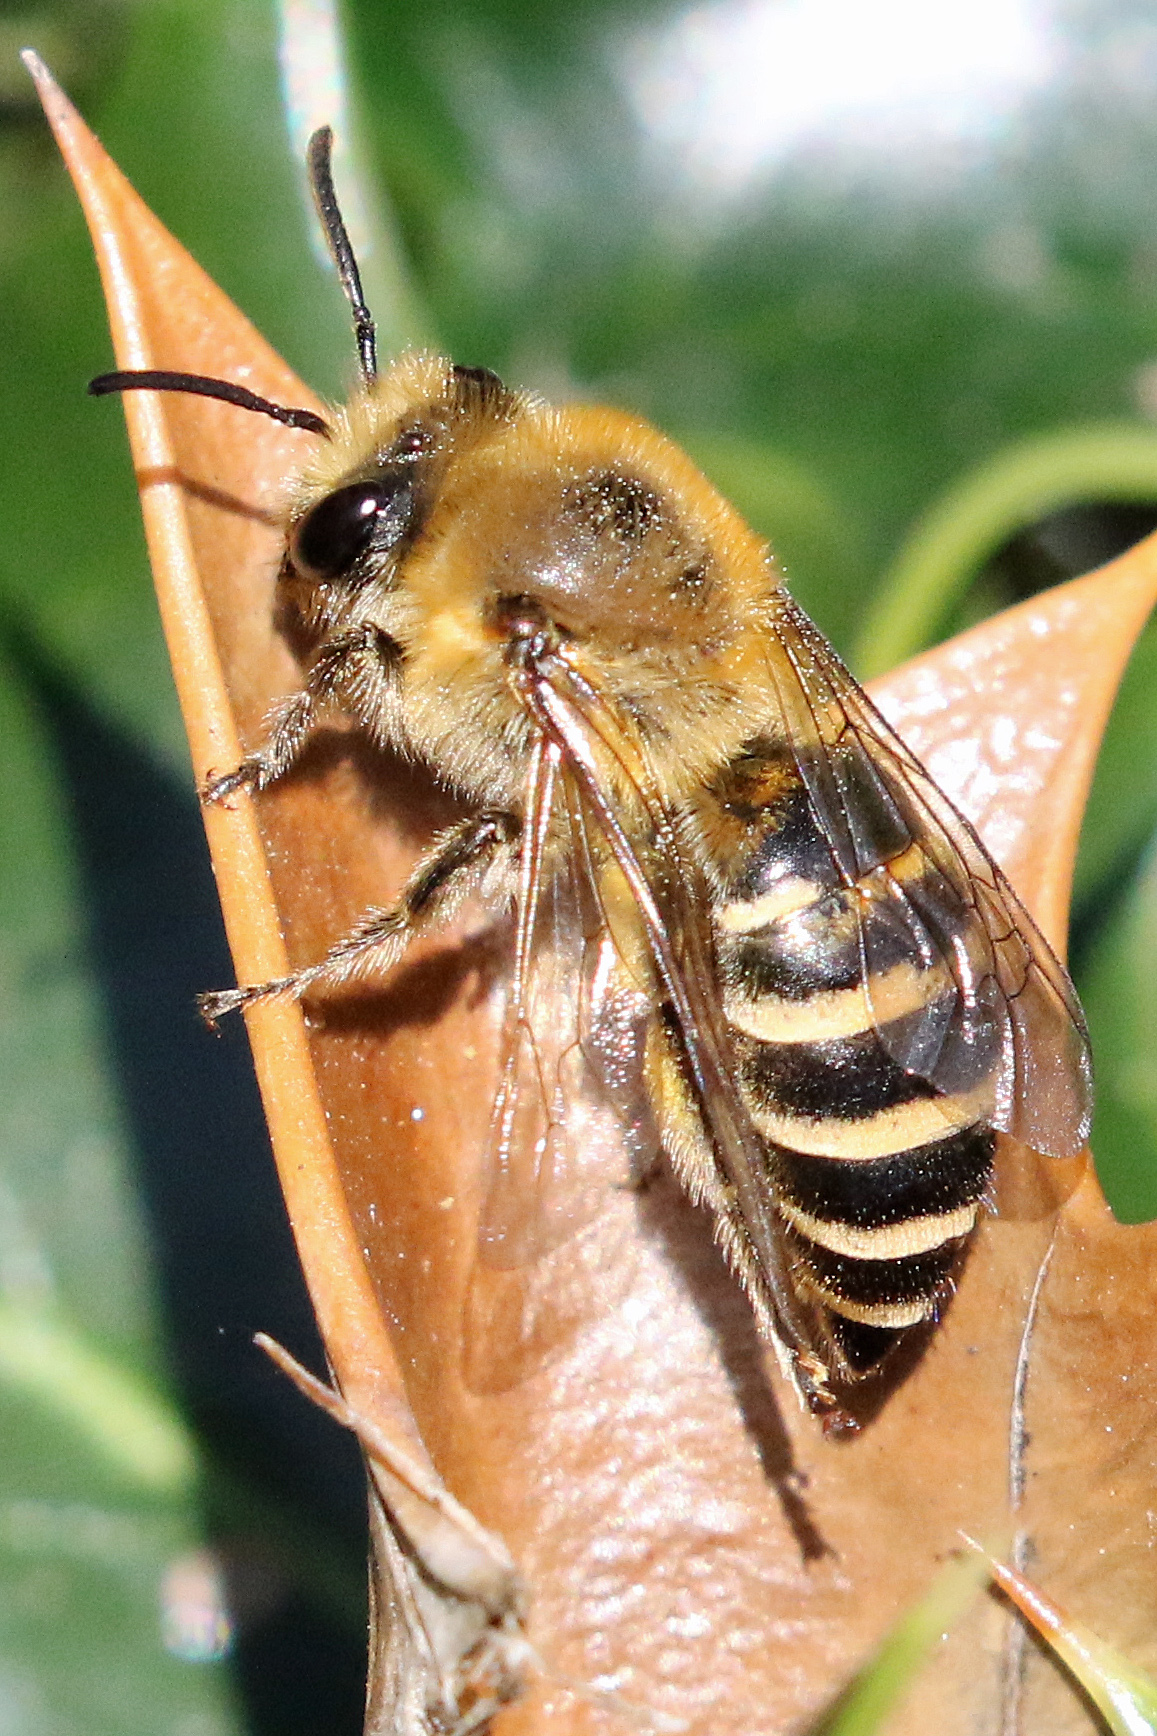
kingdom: Animalia
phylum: Arthropoda
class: Insecta
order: Hymenoptera
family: Colletidae
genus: Colletes
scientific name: Colletes hederae
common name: Ivy bee
